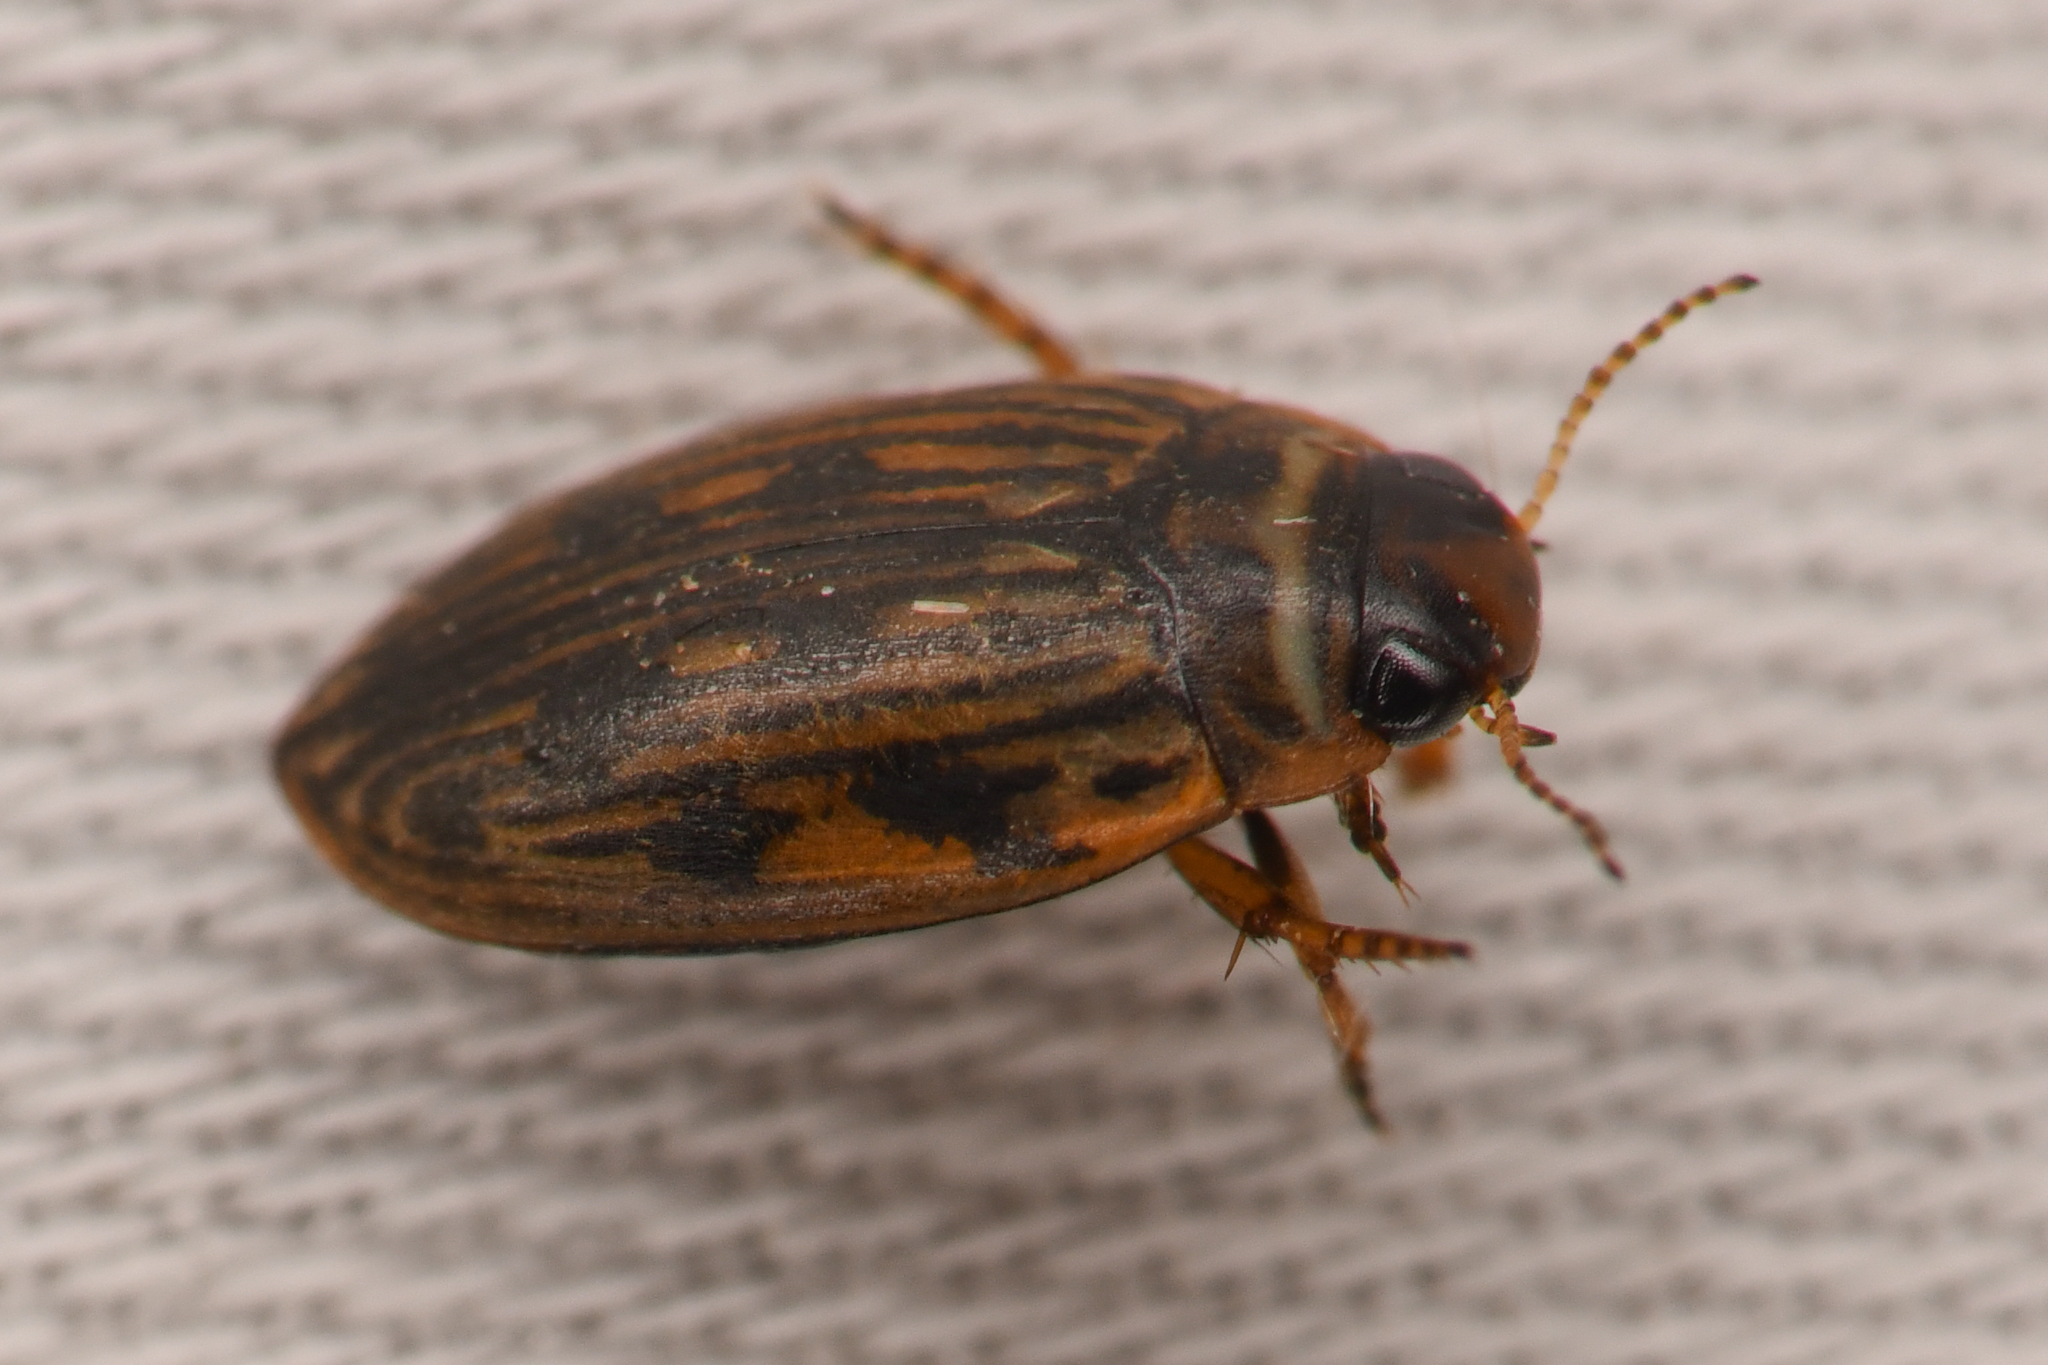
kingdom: Animalia
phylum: Arthropoda
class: Insecta
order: Coleoptera
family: Dytiscidae
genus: Boreonectes
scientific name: Boreonectes griseostriatus
